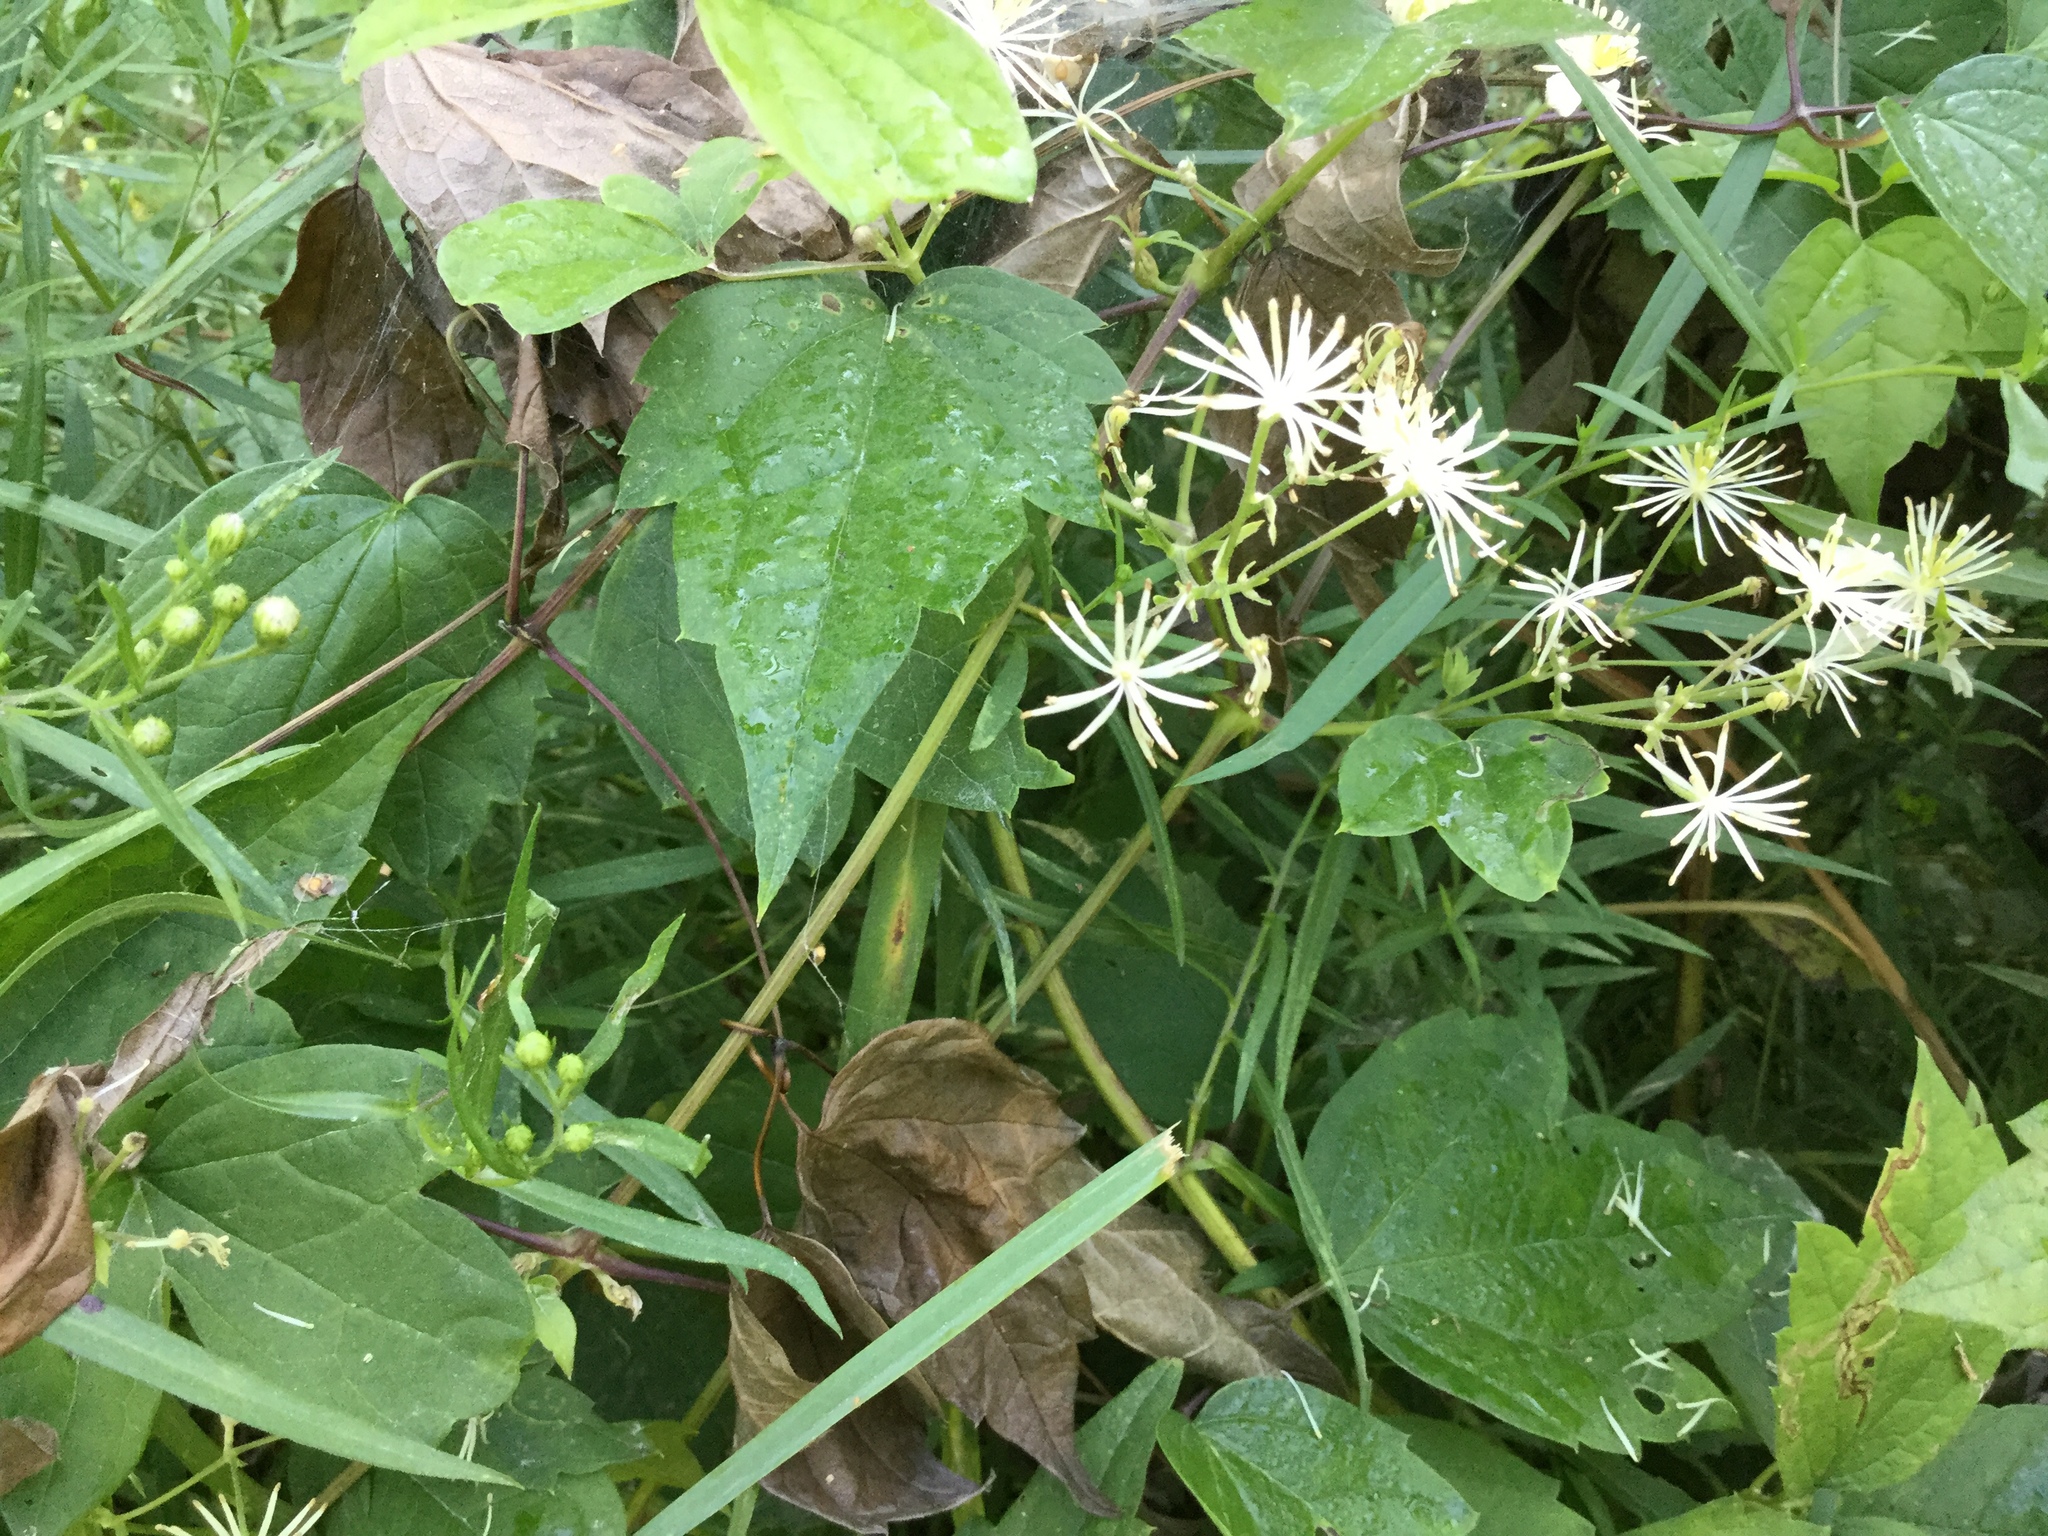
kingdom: Plantae
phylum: Tracheophyta
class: Magnoliopsida
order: Ranunculales
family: Ranunculaceae
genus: Clematis
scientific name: Clematis virginiana
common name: Virgin's-bower
